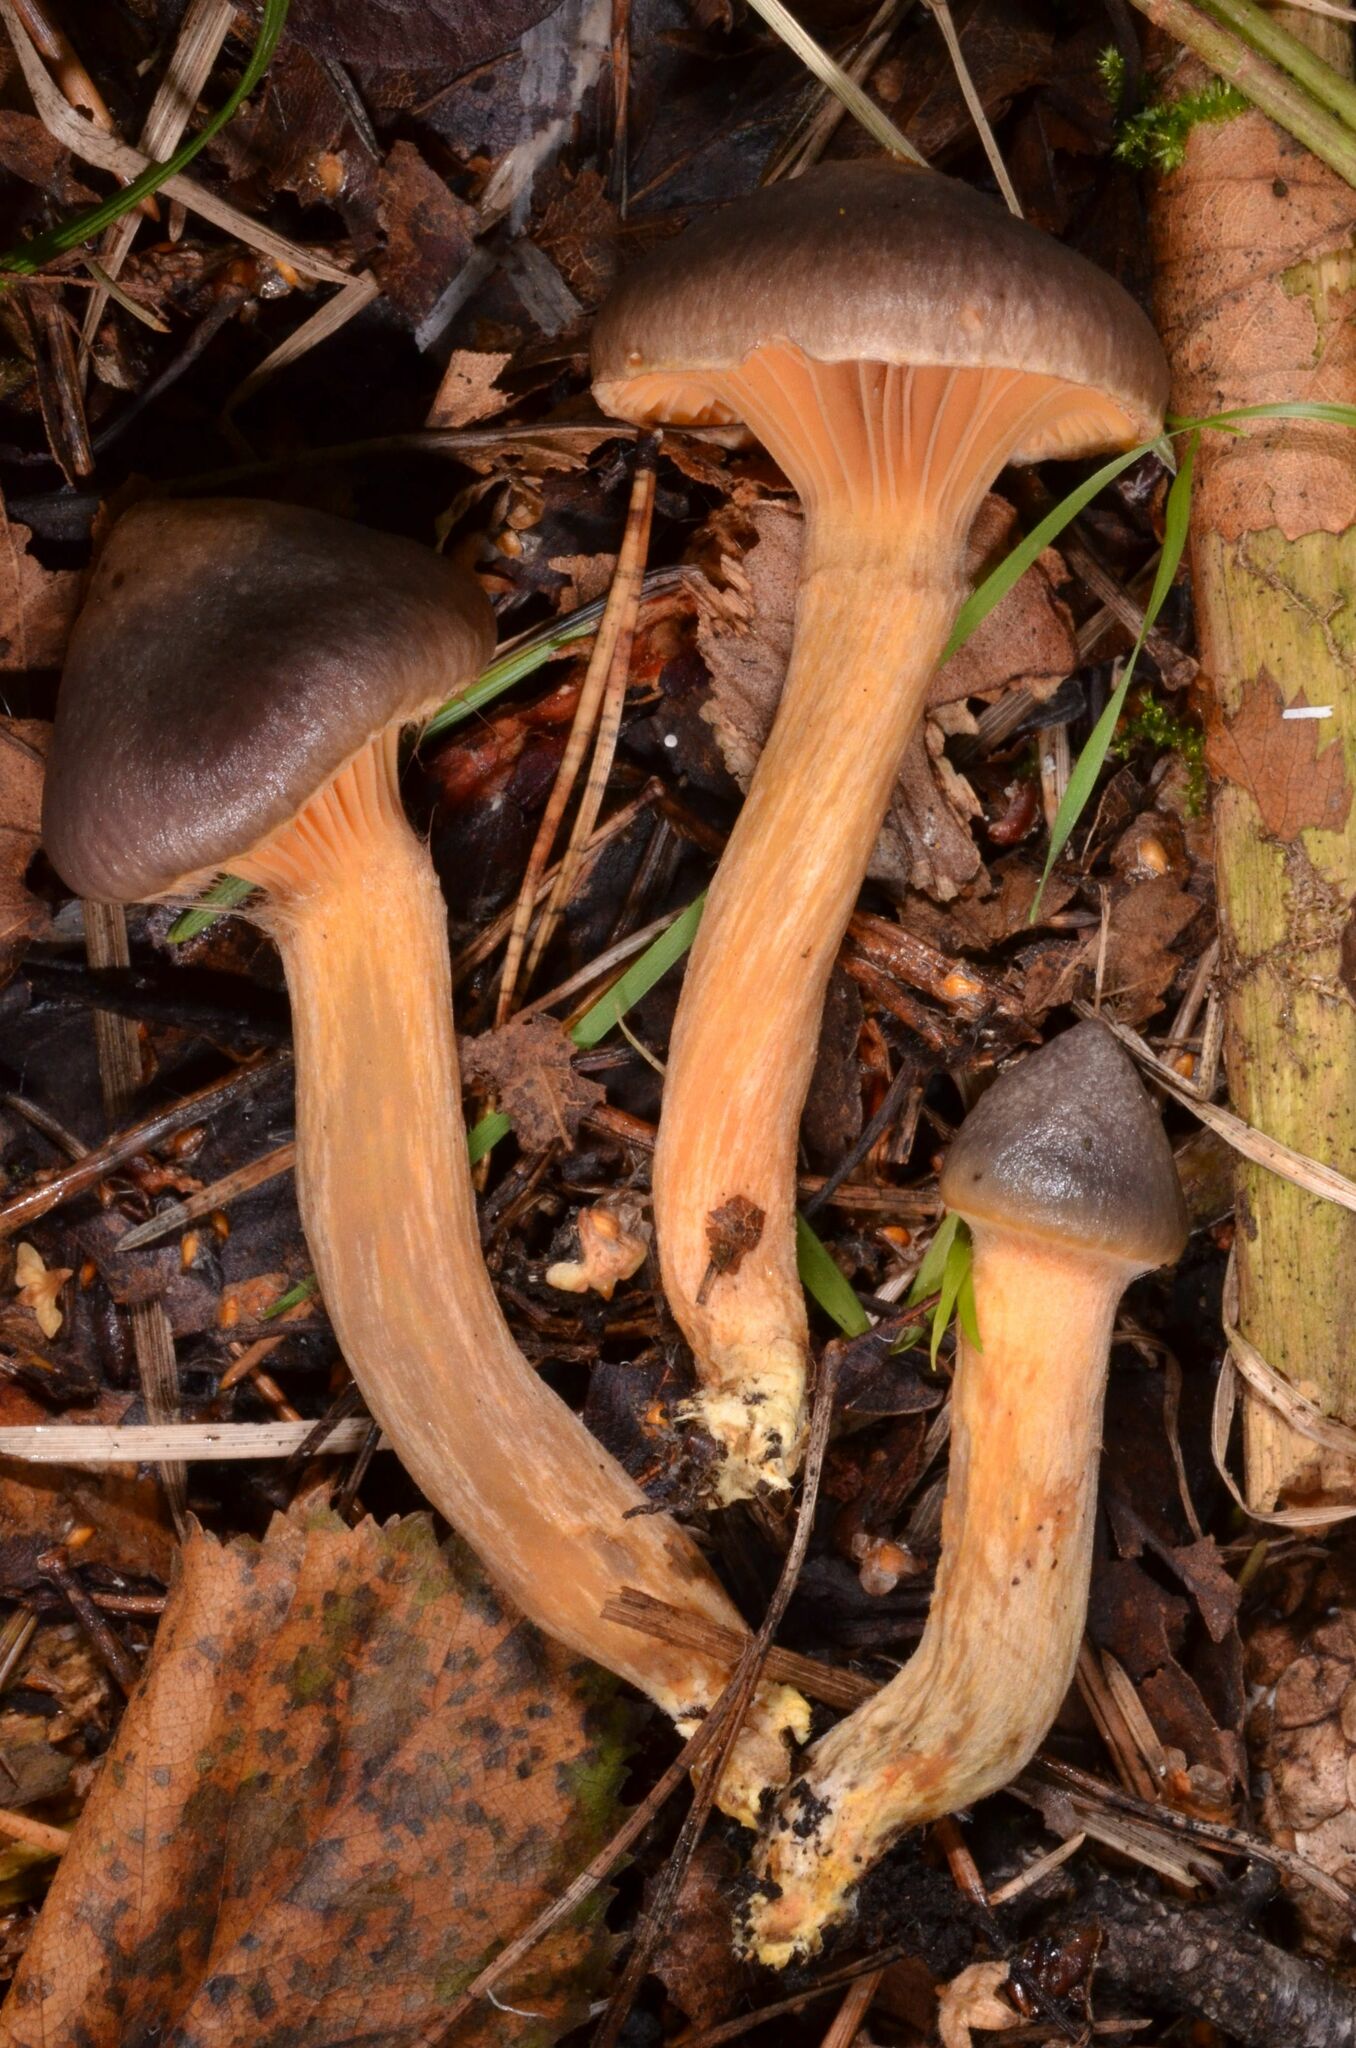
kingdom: Fungi
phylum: Basidiomycota
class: Agaricomycetes
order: Boletales
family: Gomphidiaceae
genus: Chroogomphus
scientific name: Chroogomphus rutilus
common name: Copper spike
